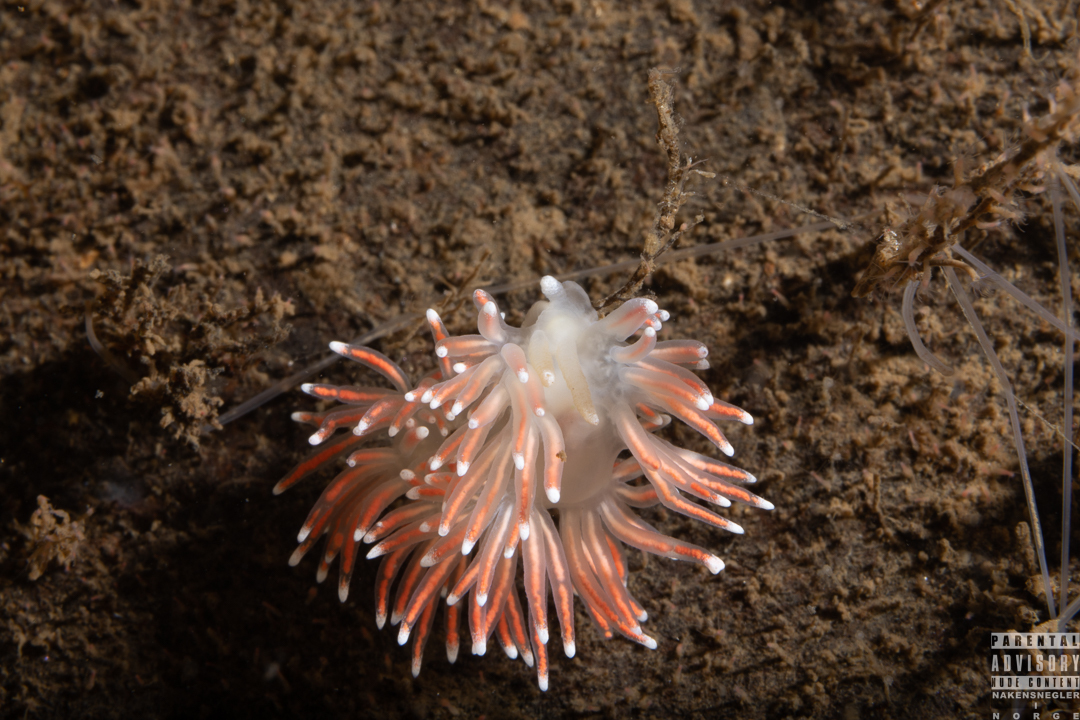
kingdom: Animalia
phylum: Mollusca
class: Gastropoda
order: Nudibranchia
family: Flabellinidae
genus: Carronella
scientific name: Carronella pellucida
